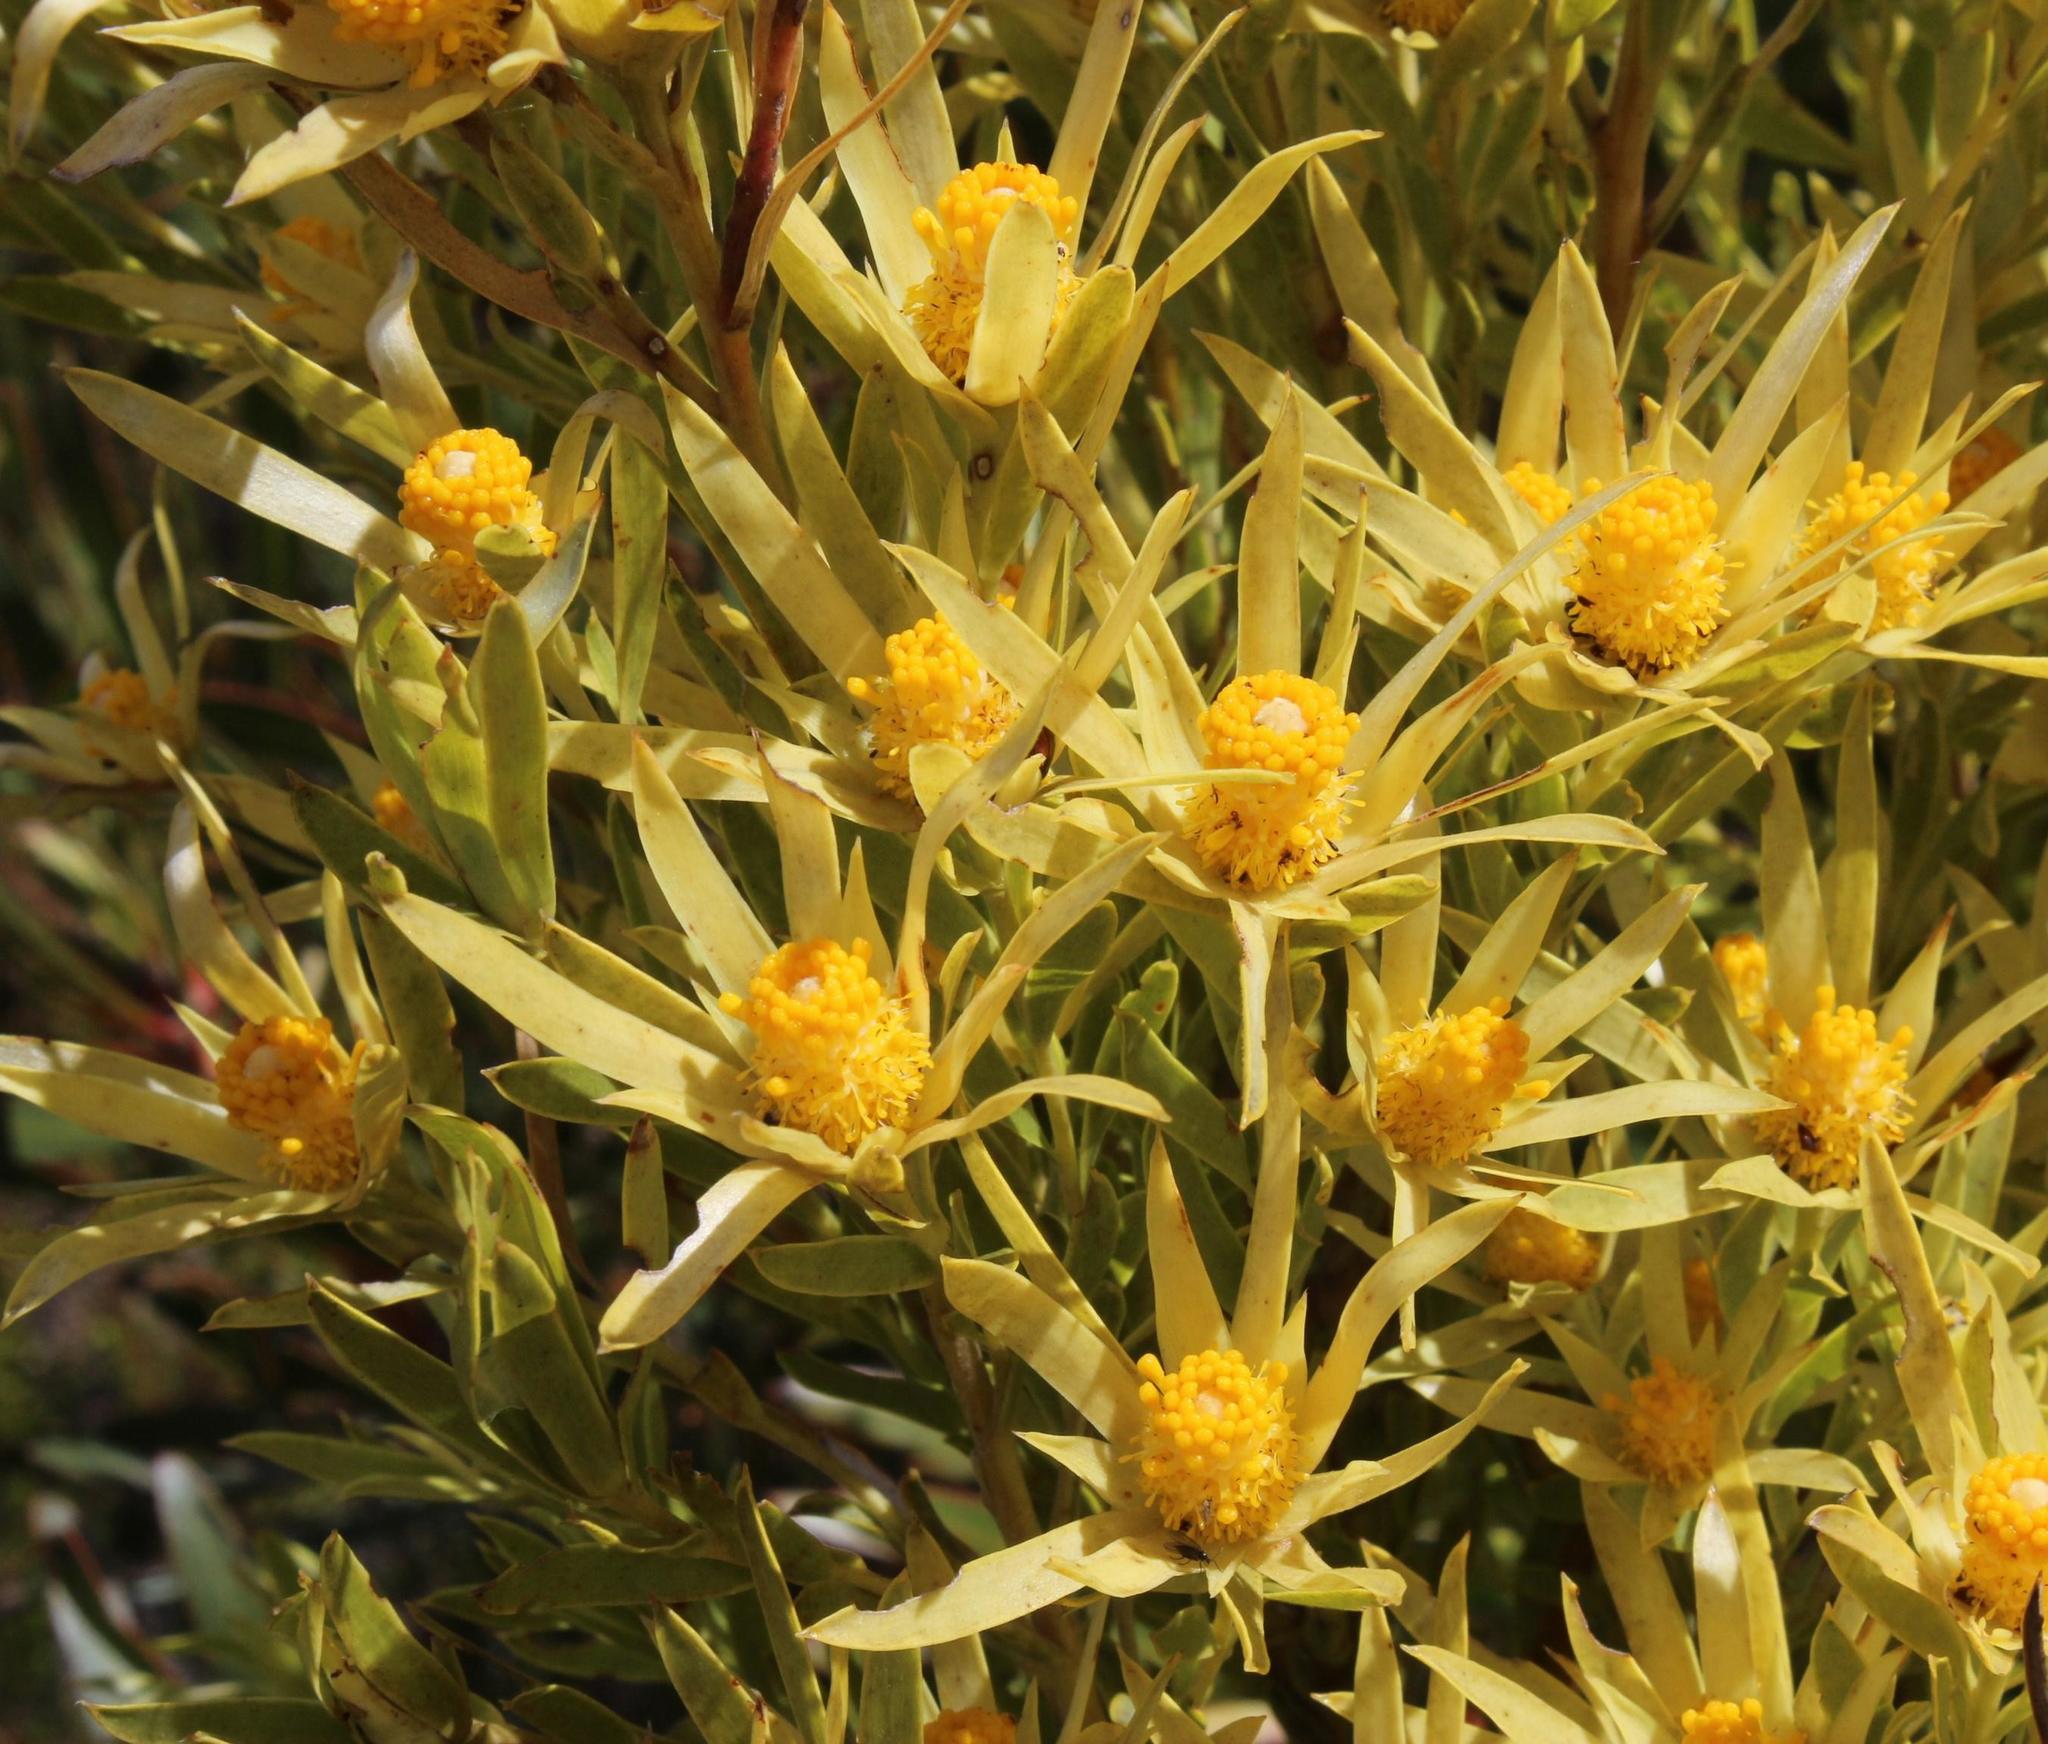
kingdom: Plantae
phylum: Tracheophyta
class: Magnoliopsida
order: Proteales
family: Proteaceae
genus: Leucadendron
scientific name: Leucadendron xanthoconus
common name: Sickle-leaf conebush
